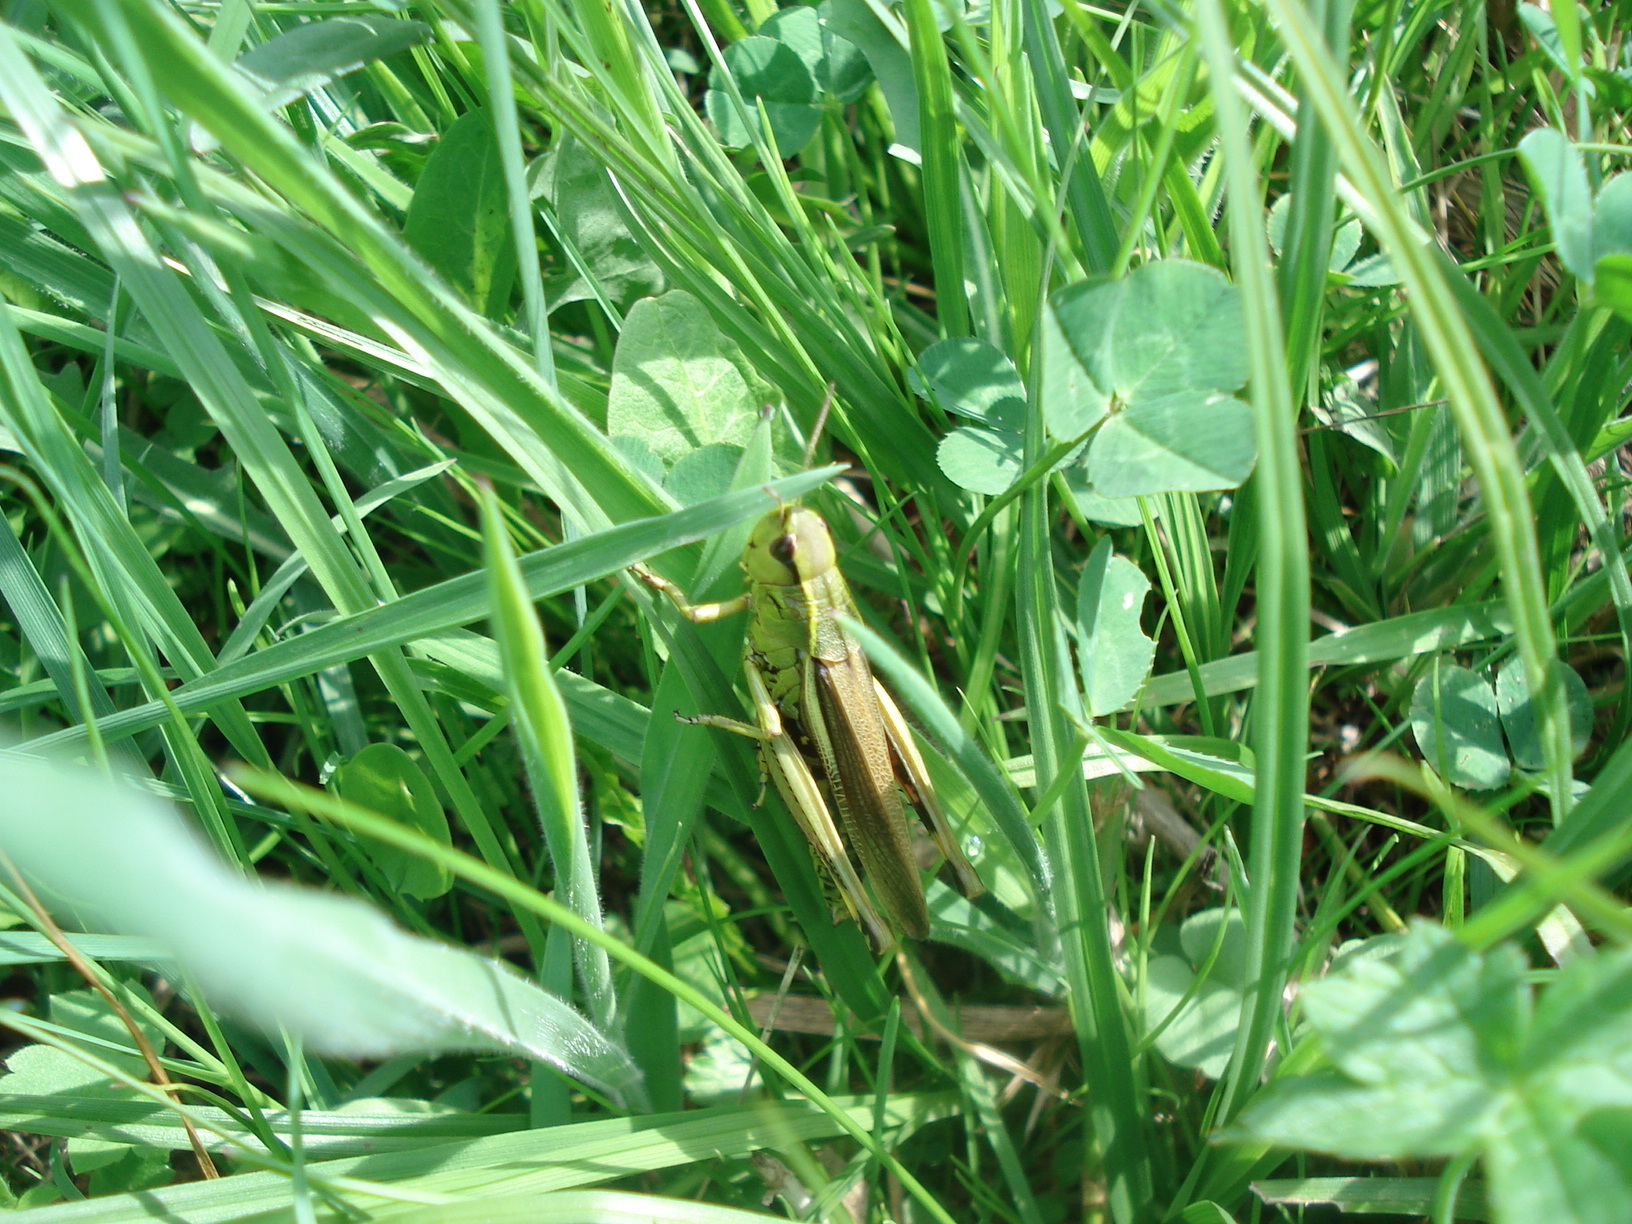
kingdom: Animalia
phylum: Arthropoda
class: Insecta
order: Orthoptera
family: Acrididae
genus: Stethophyma
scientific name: Stethophyma grossum
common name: Large marsh grasshopper
